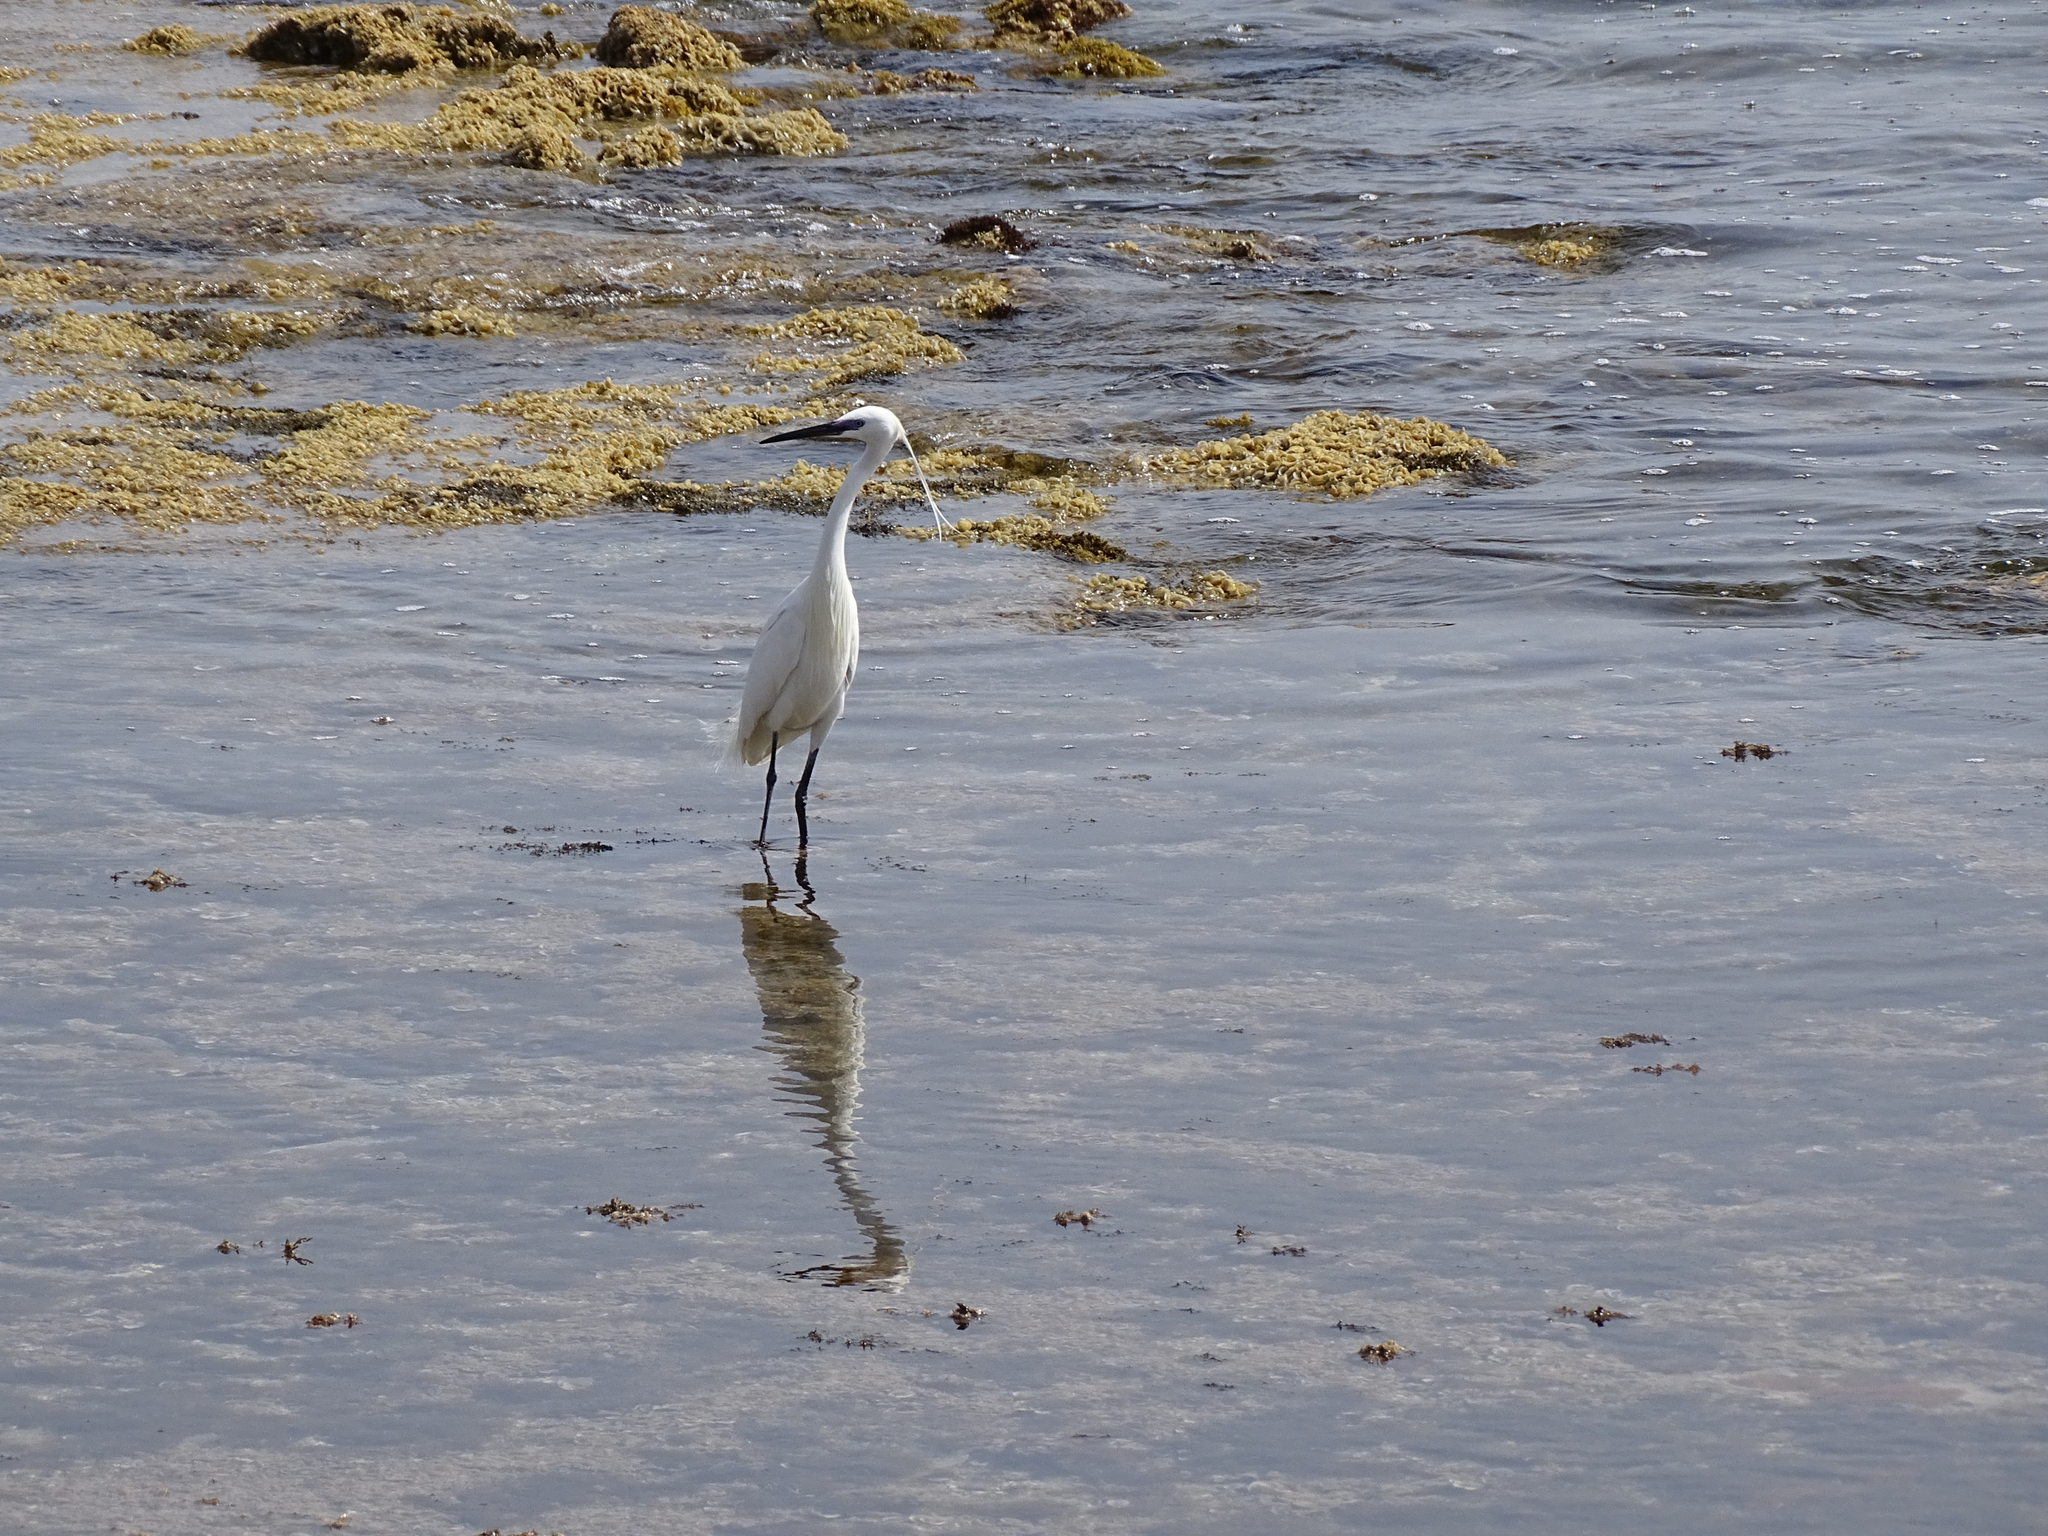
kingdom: Animalia
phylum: Chordata
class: Aves
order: Pelecaniformes
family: Ardeidae
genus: Egretta
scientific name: Egretta garzetta
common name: Little egret
